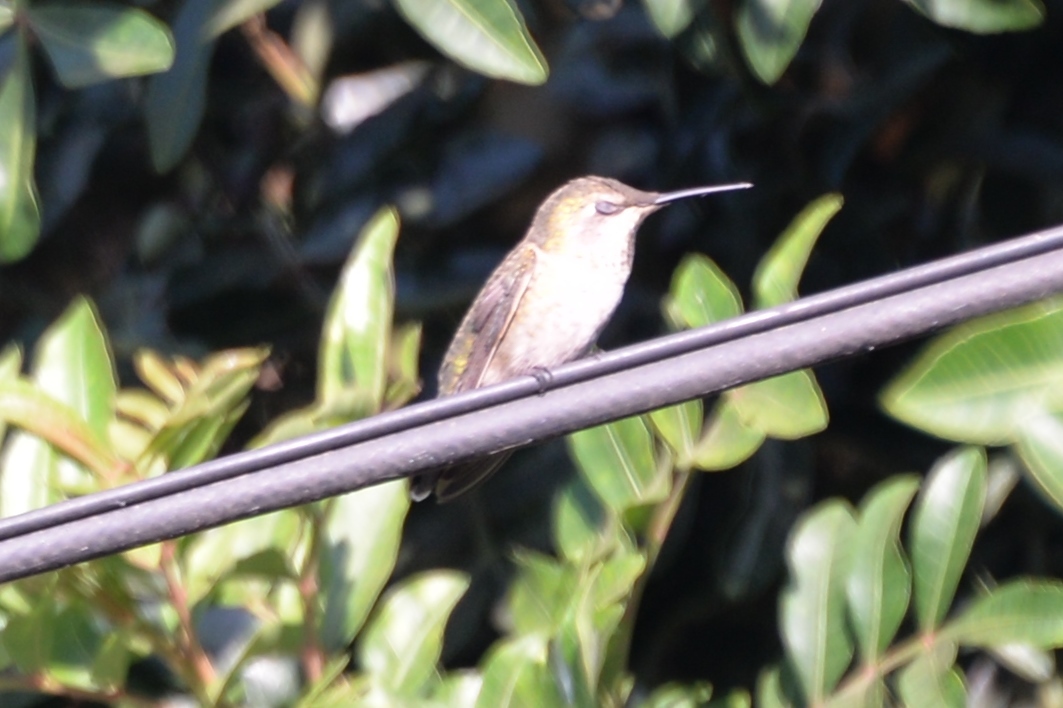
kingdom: Animalia
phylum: Chordata
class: Aves
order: Apodiformes
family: Trochilidae
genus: Calypte
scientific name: Calypte anna
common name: Anna's hummingbird
